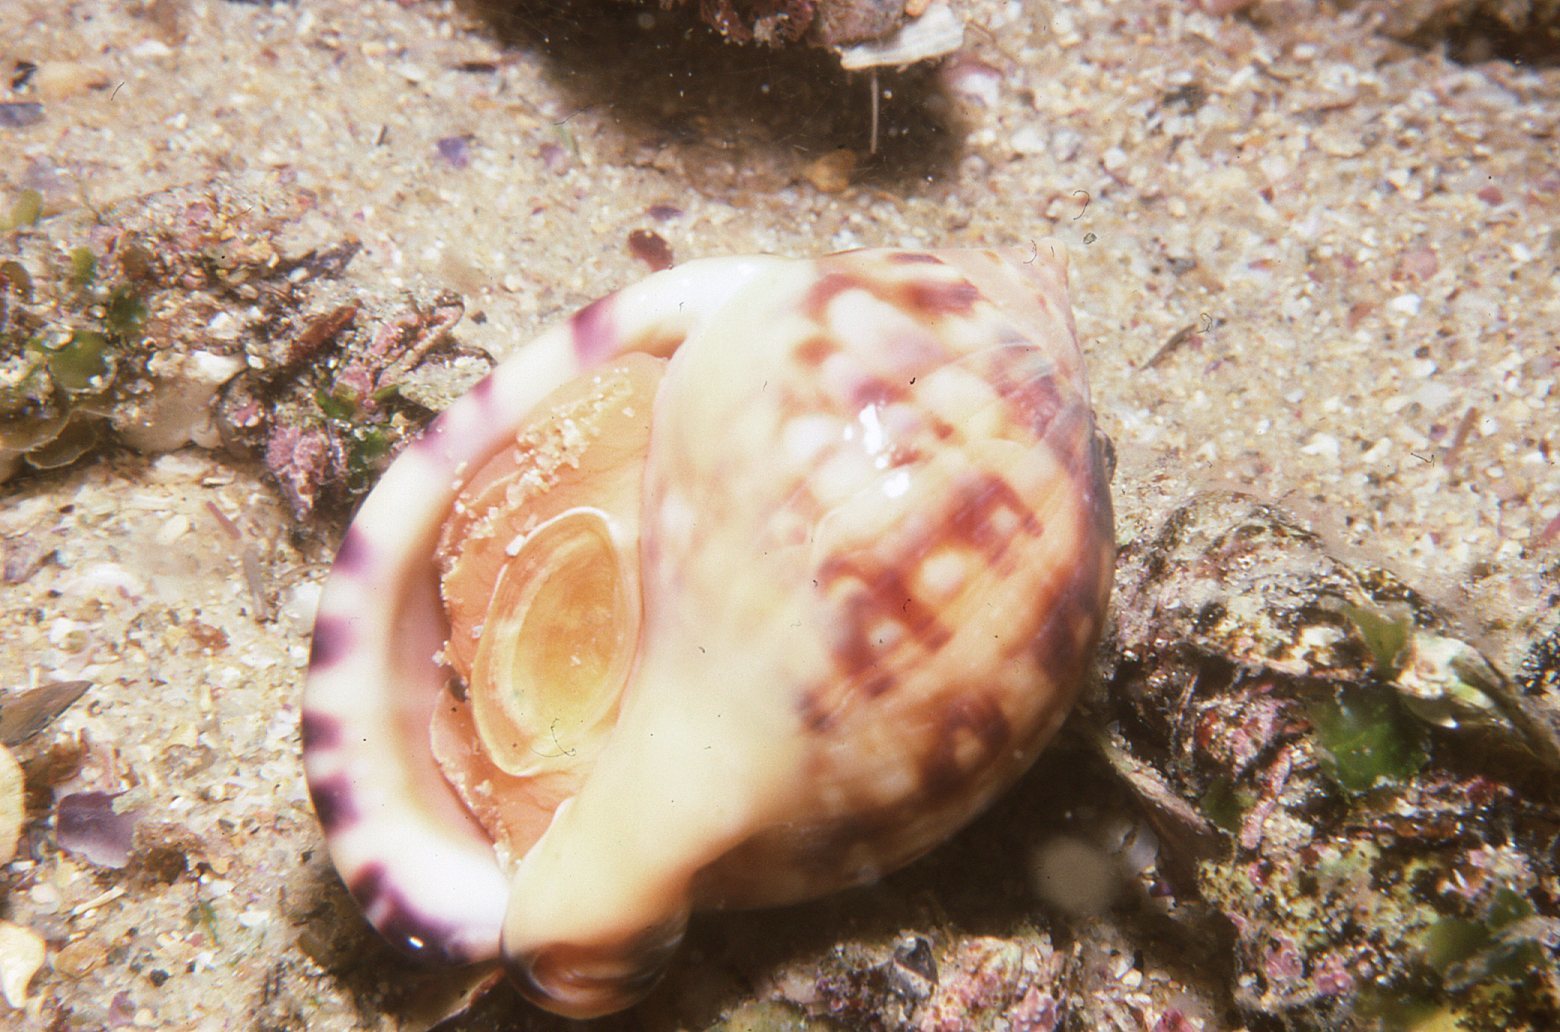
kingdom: Animalia
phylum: Mollusca
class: Gastropoda
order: Littorinimorpha
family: Cassidae
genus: Semicassis
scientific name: Semicassis labiata
